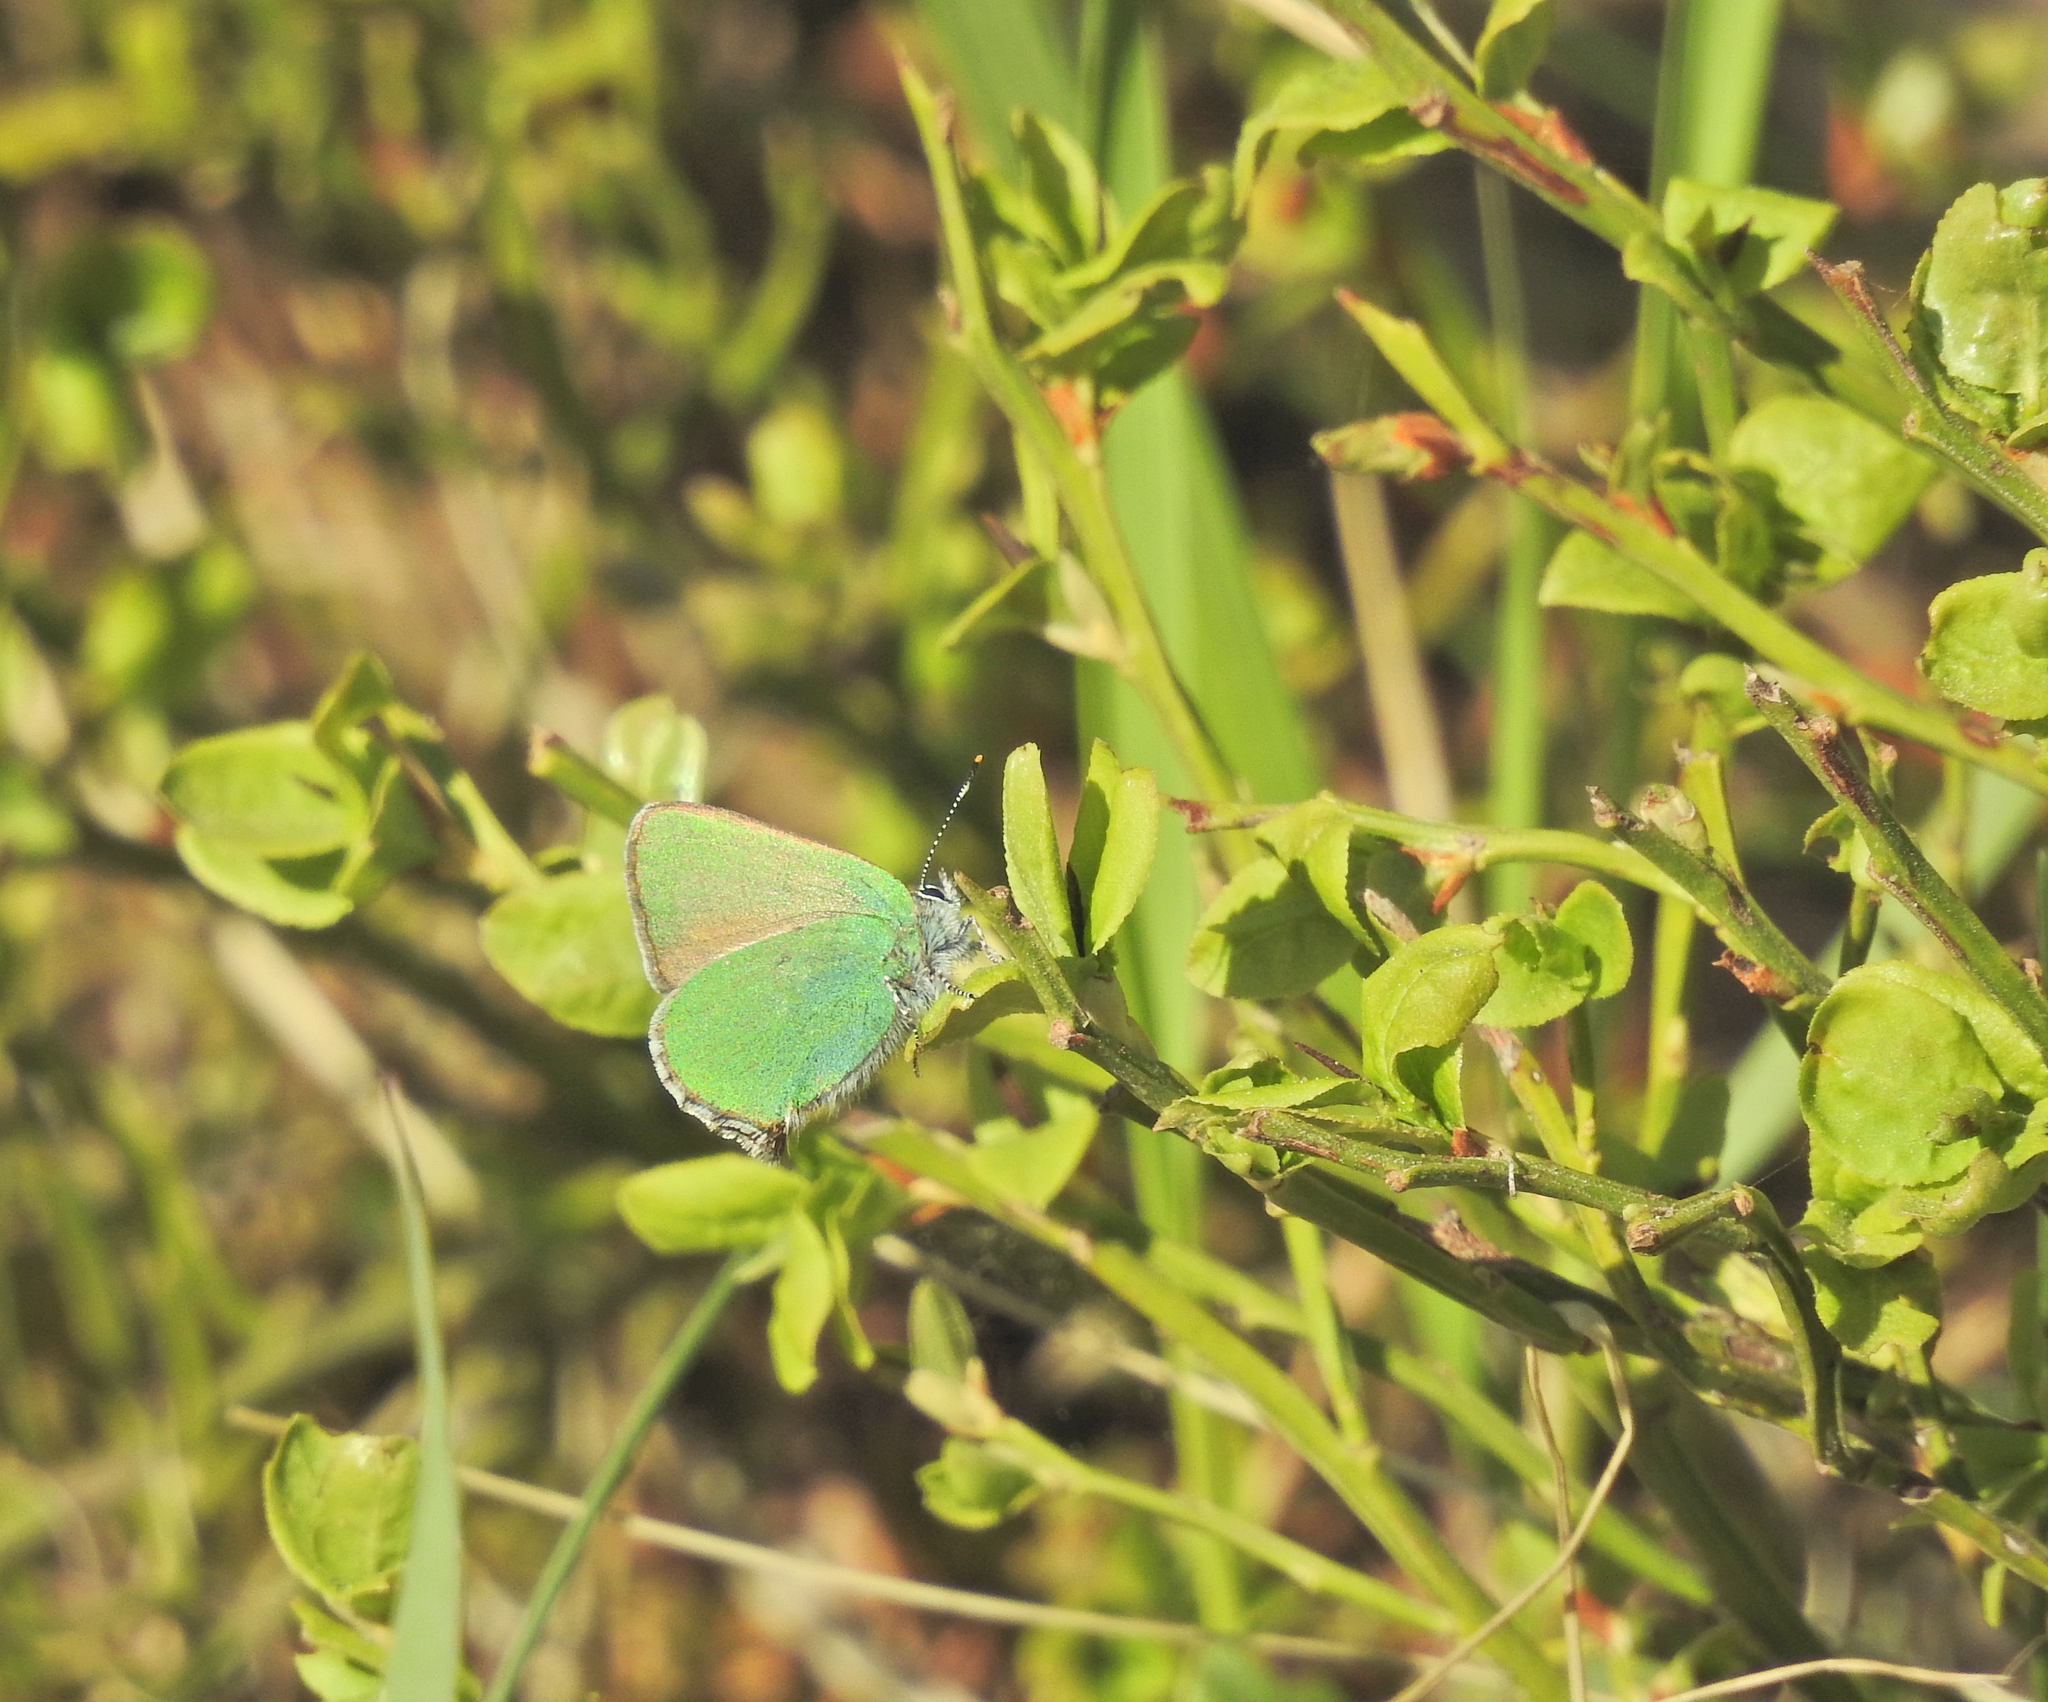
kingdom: Animalia
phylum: Arthropoda
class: Insecta
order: Lepidoptera
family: Lycaenidae
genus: Callophrys
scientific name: Callophrys rubi
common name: Green hairstreak
